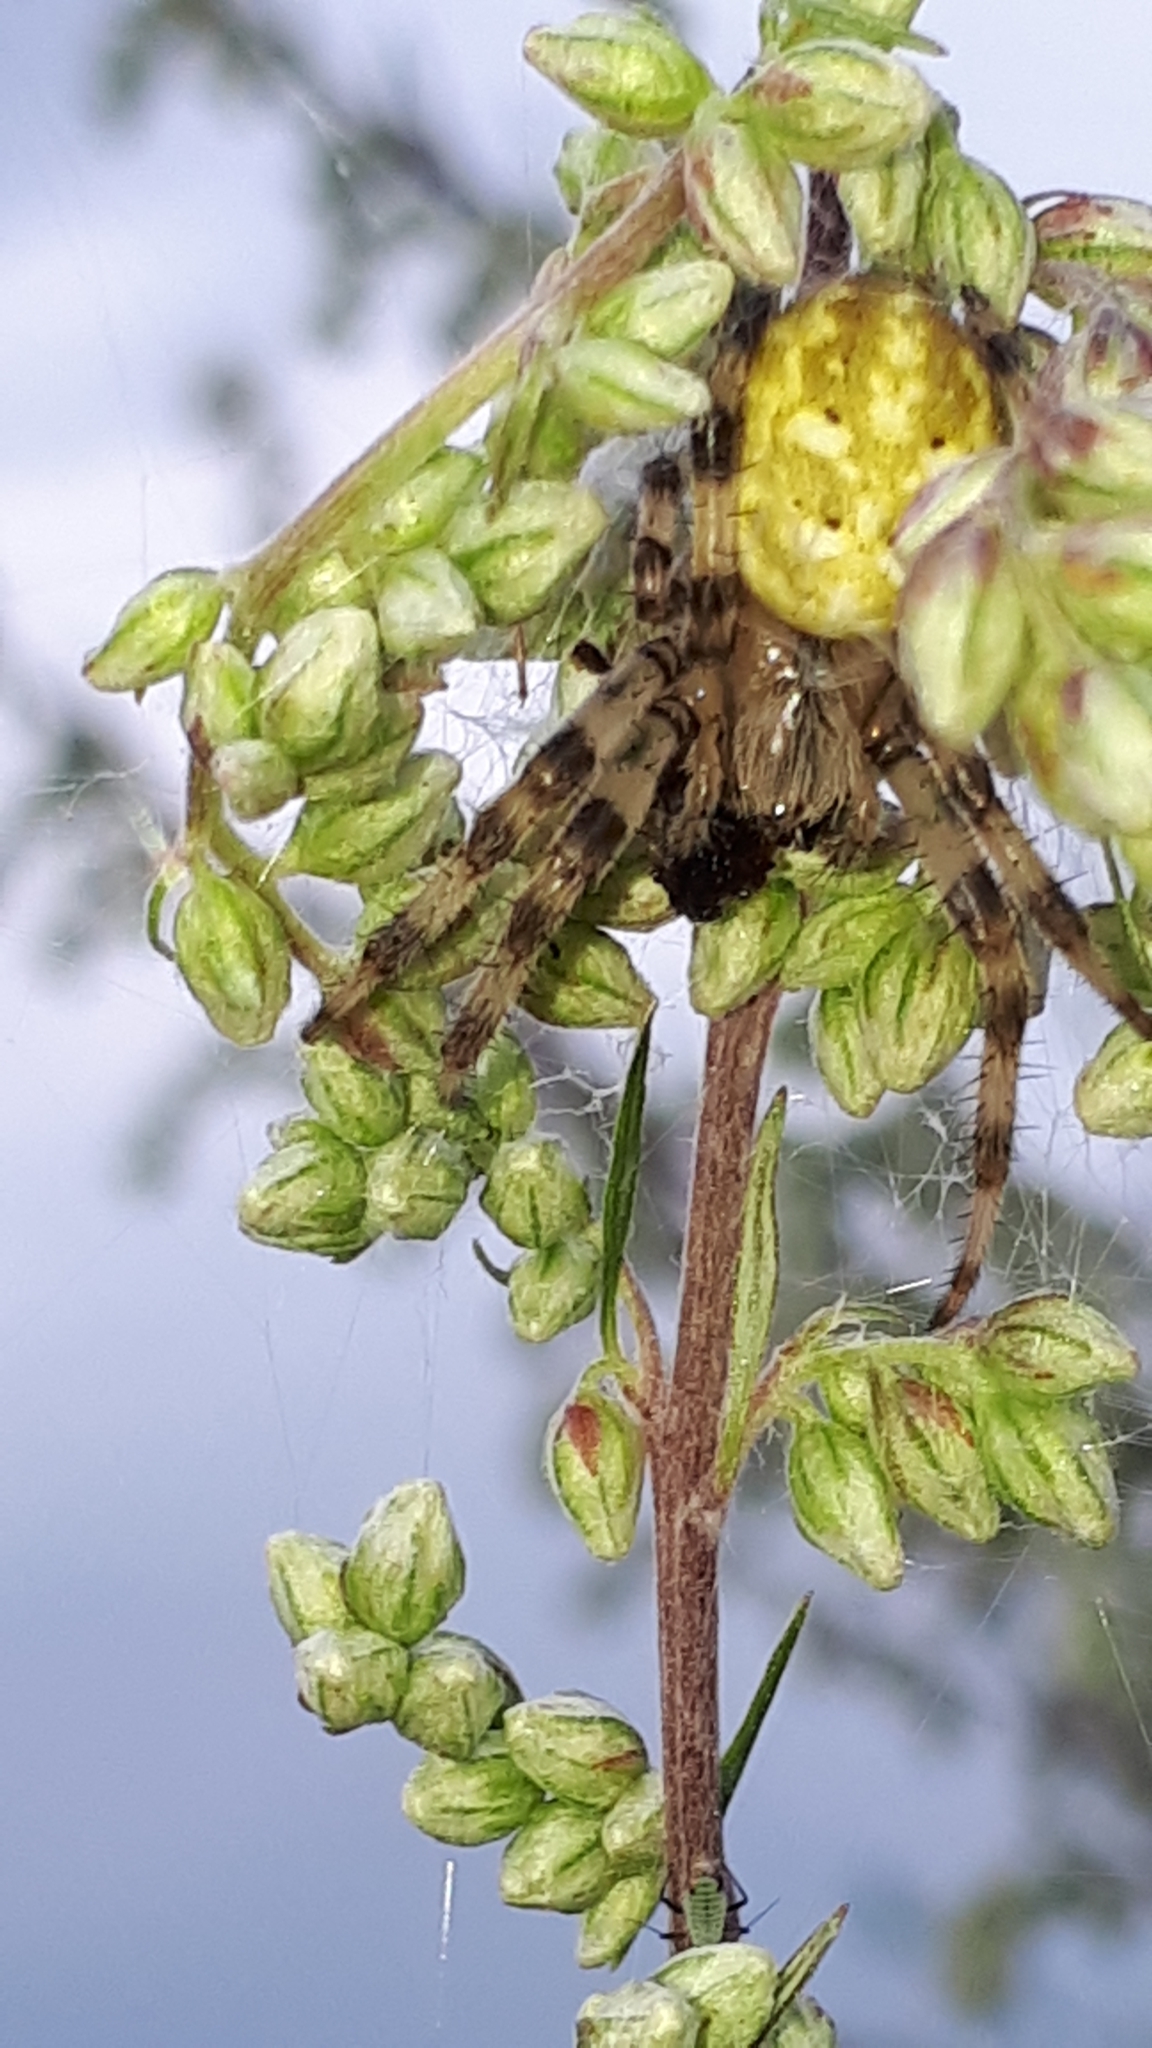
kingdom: Animalia
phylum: Arthropoda
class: Arachnida
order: Araneae
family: Araneidae
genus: Araneus
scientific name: Araneus quadratus
